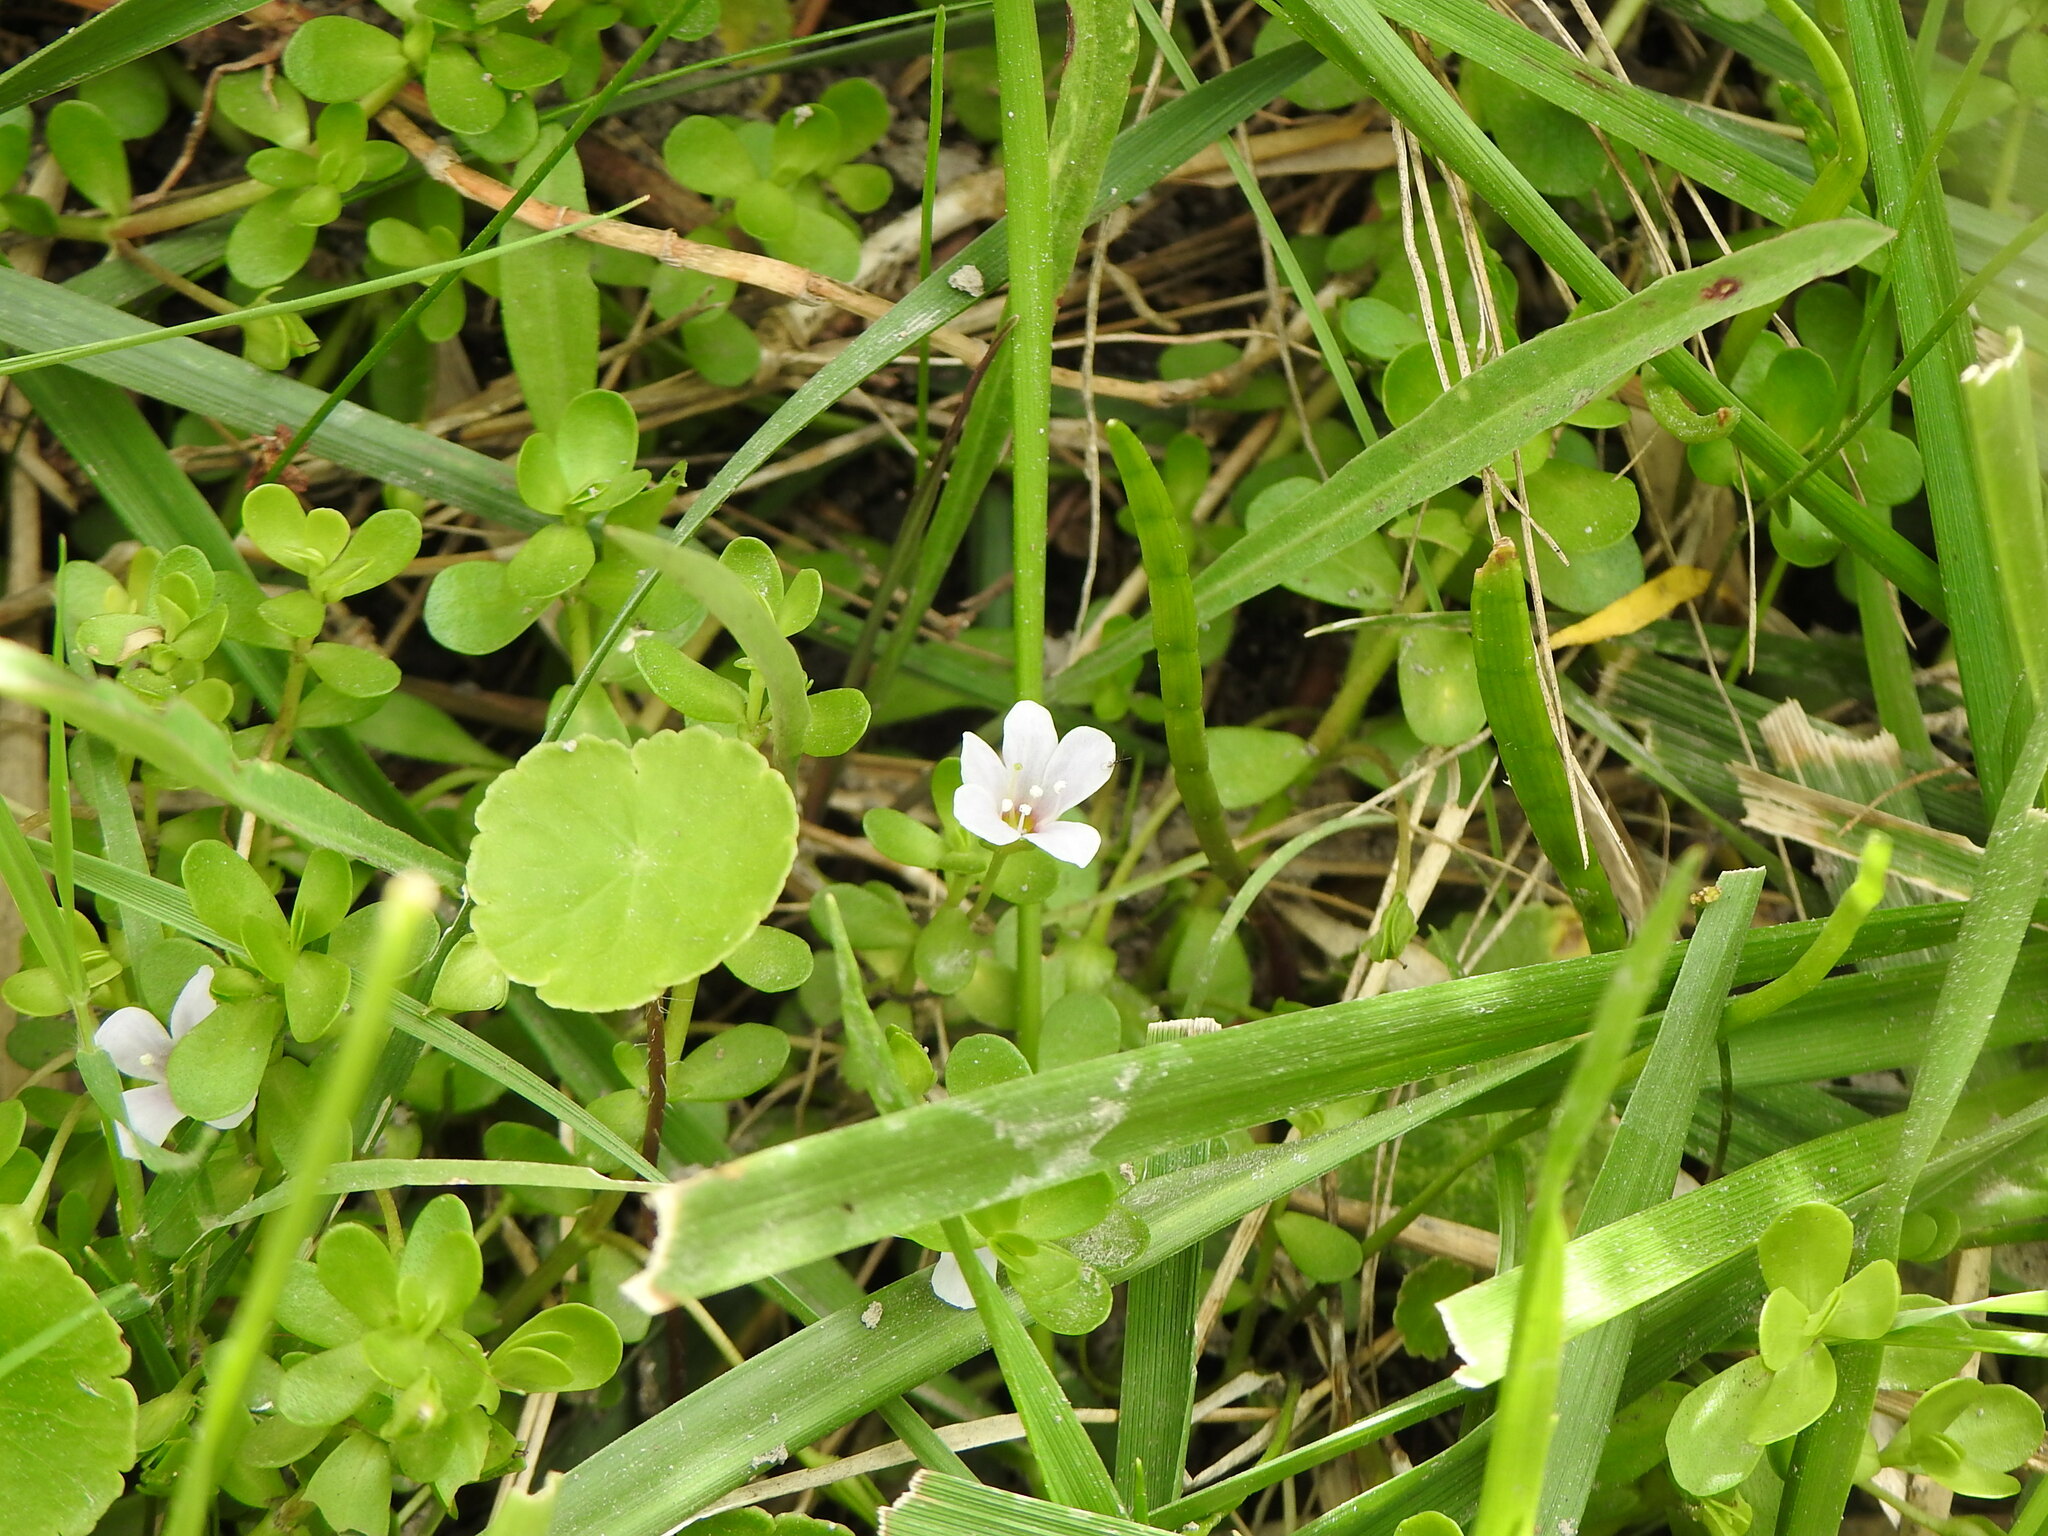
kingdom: Plantae
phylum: Tracheophyta
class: Magnoliopsida
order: Lamiales
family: Plantaginaceae
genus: Bacopa
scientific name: Bacopa monnieri
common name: Indian-pennywort
